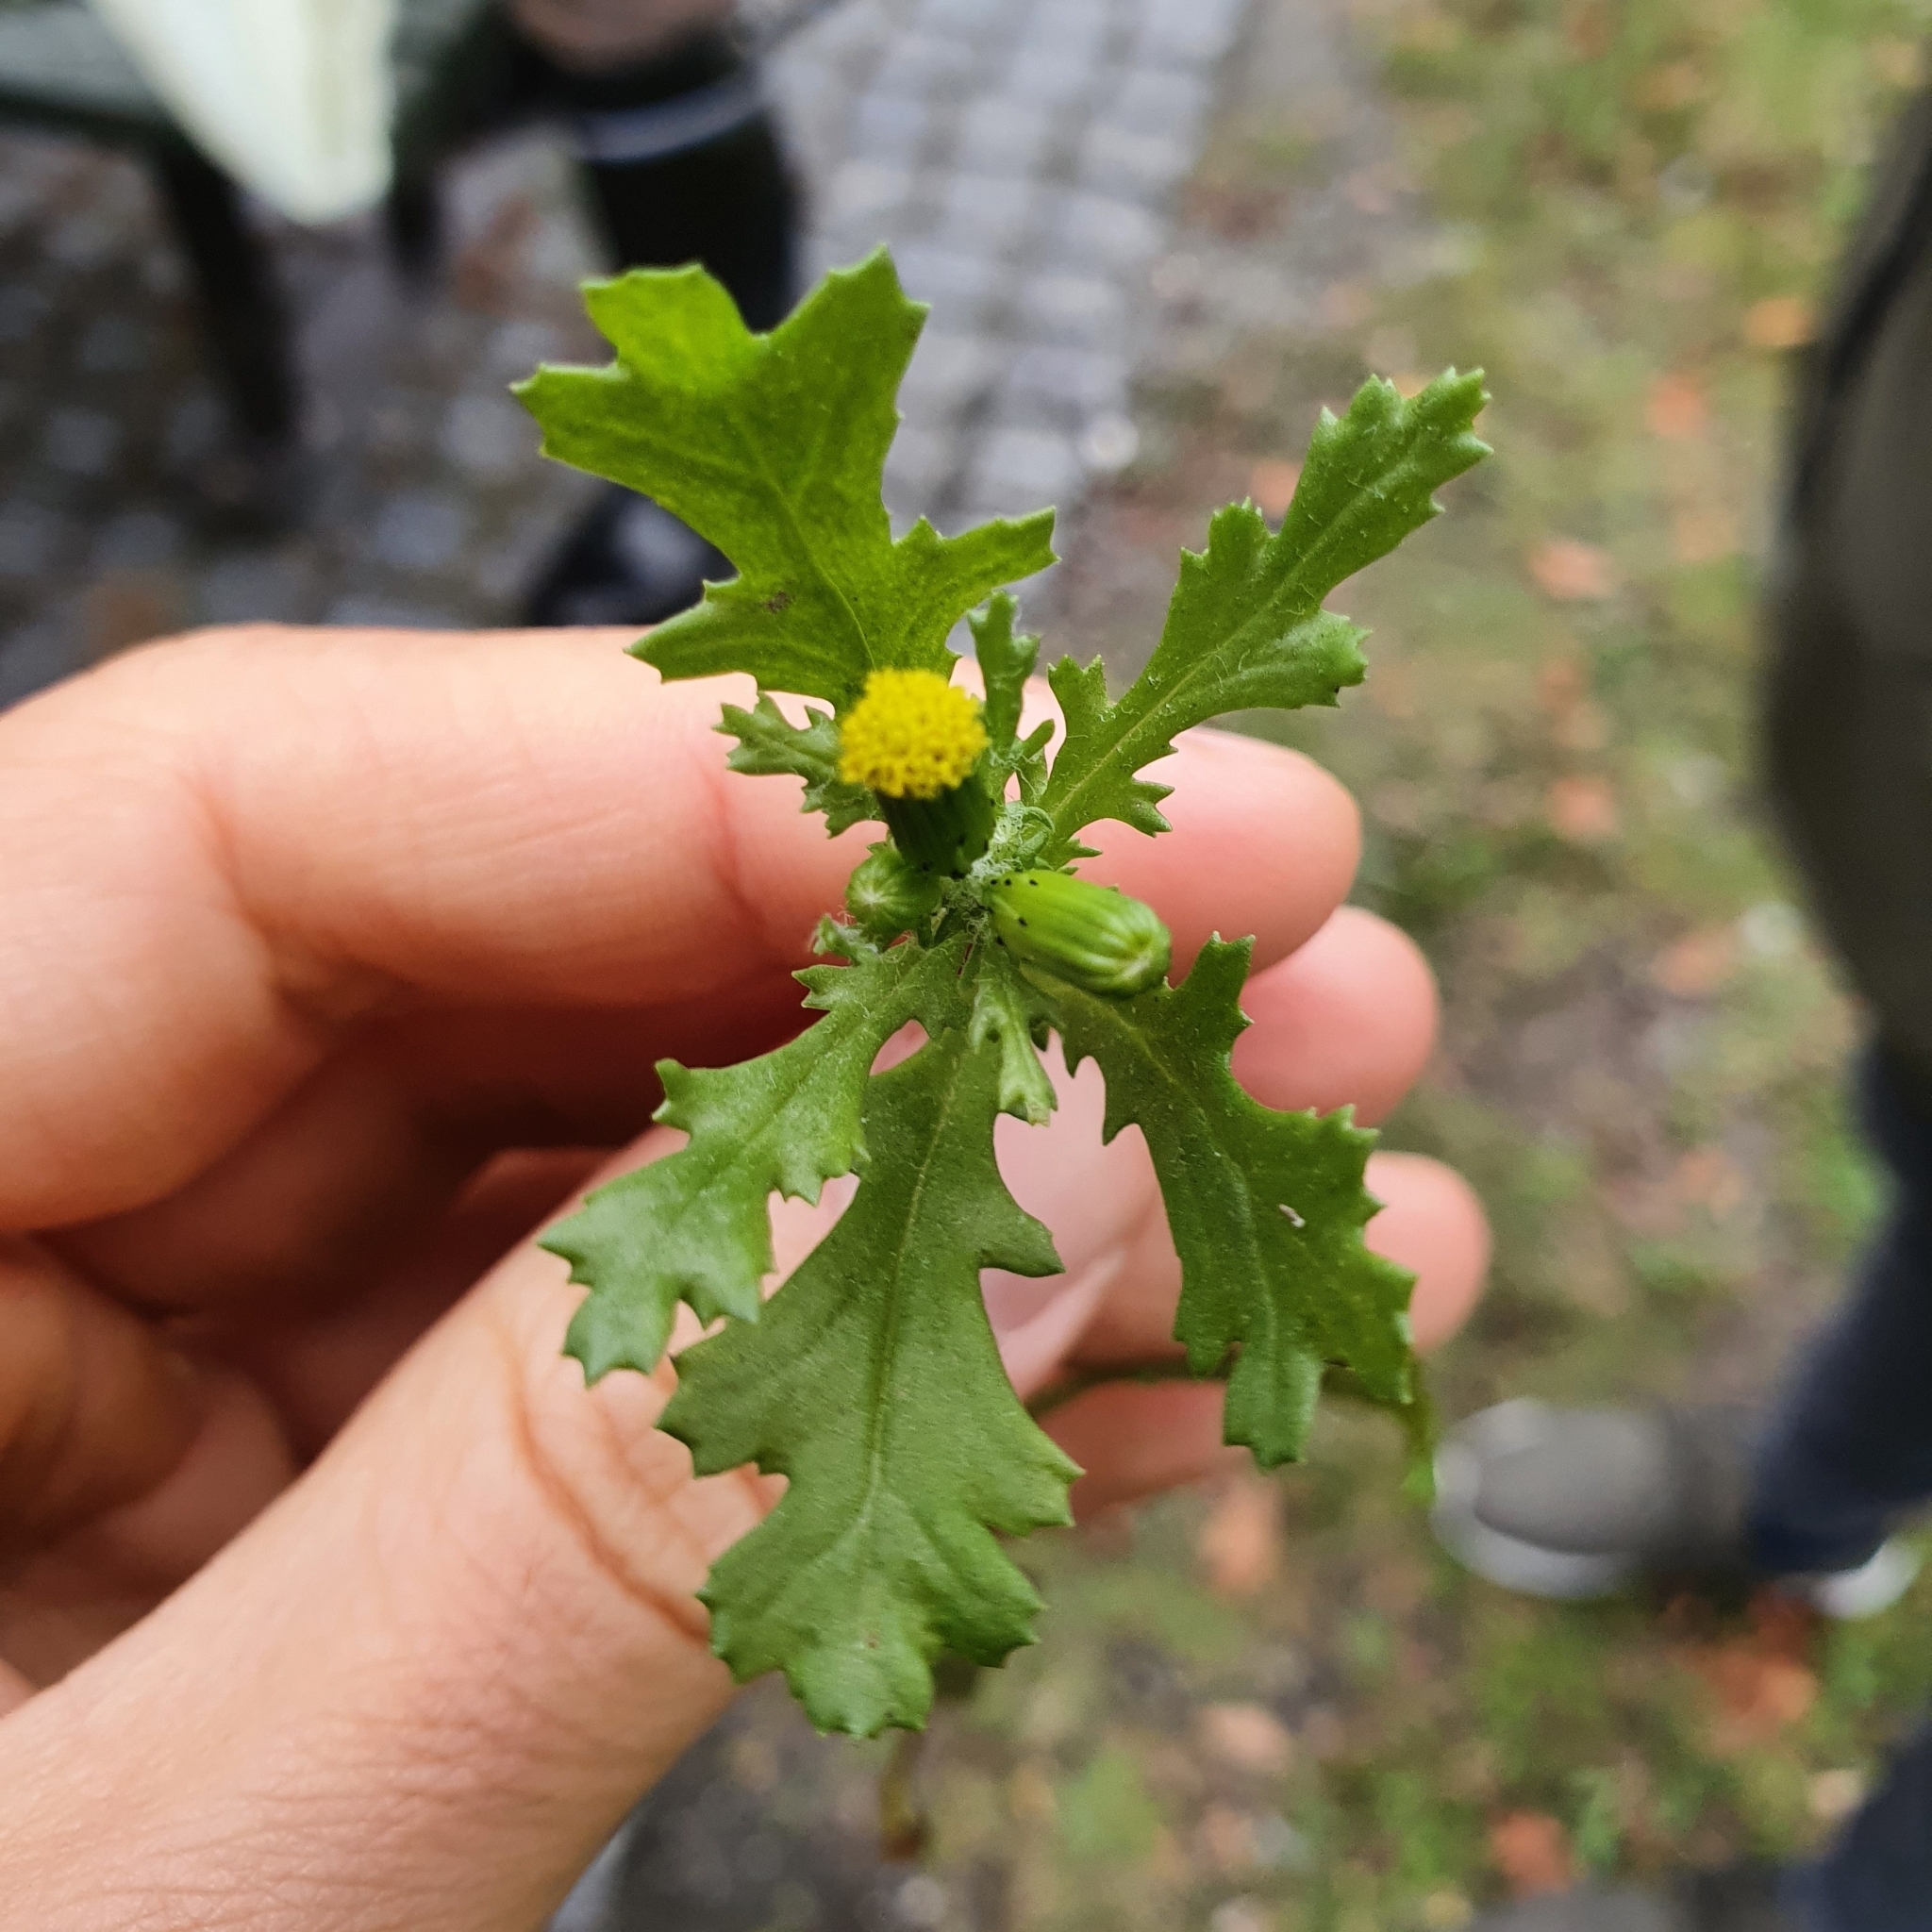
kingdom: Plantae
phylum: Tracheophyta
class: Magnoliopsida
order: Asterales
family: Asteraceae
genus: Senecio
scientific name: Senecio vulgaris
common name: Old-man-in-the-spring
